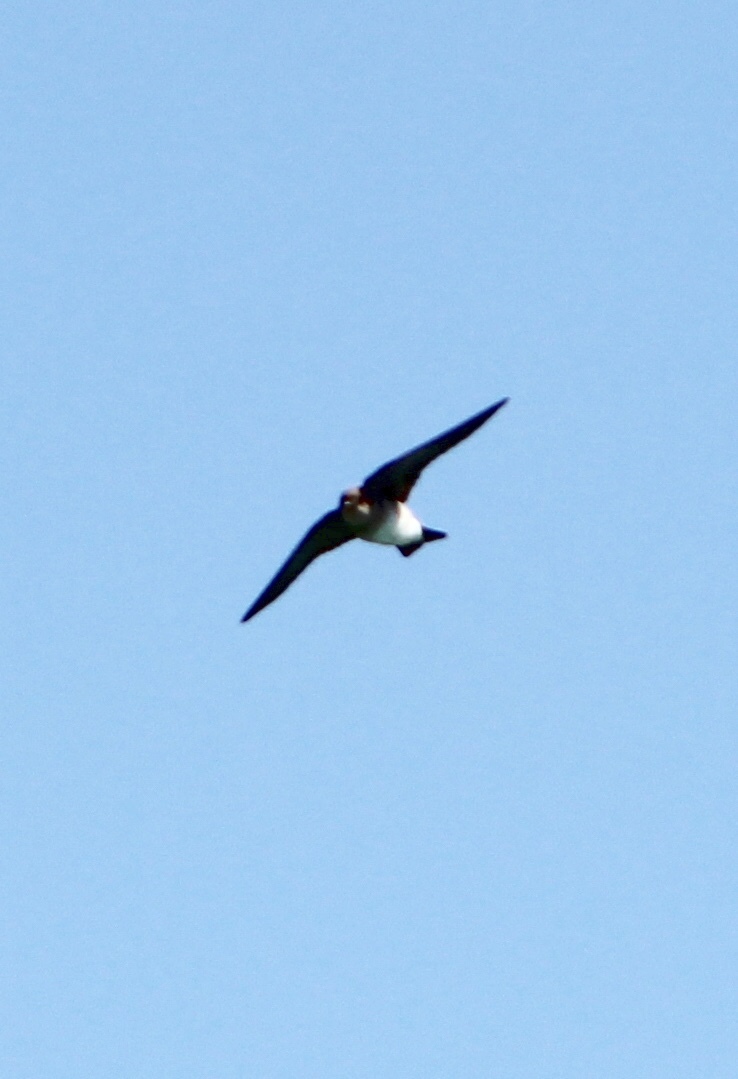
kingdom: Animalia
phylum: Chordata
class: Aves
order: Passeriformes
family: Hirundinidae
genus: Petrochelidon
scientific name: Petrochelidon pyrrhonota
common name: American cliff swallow
